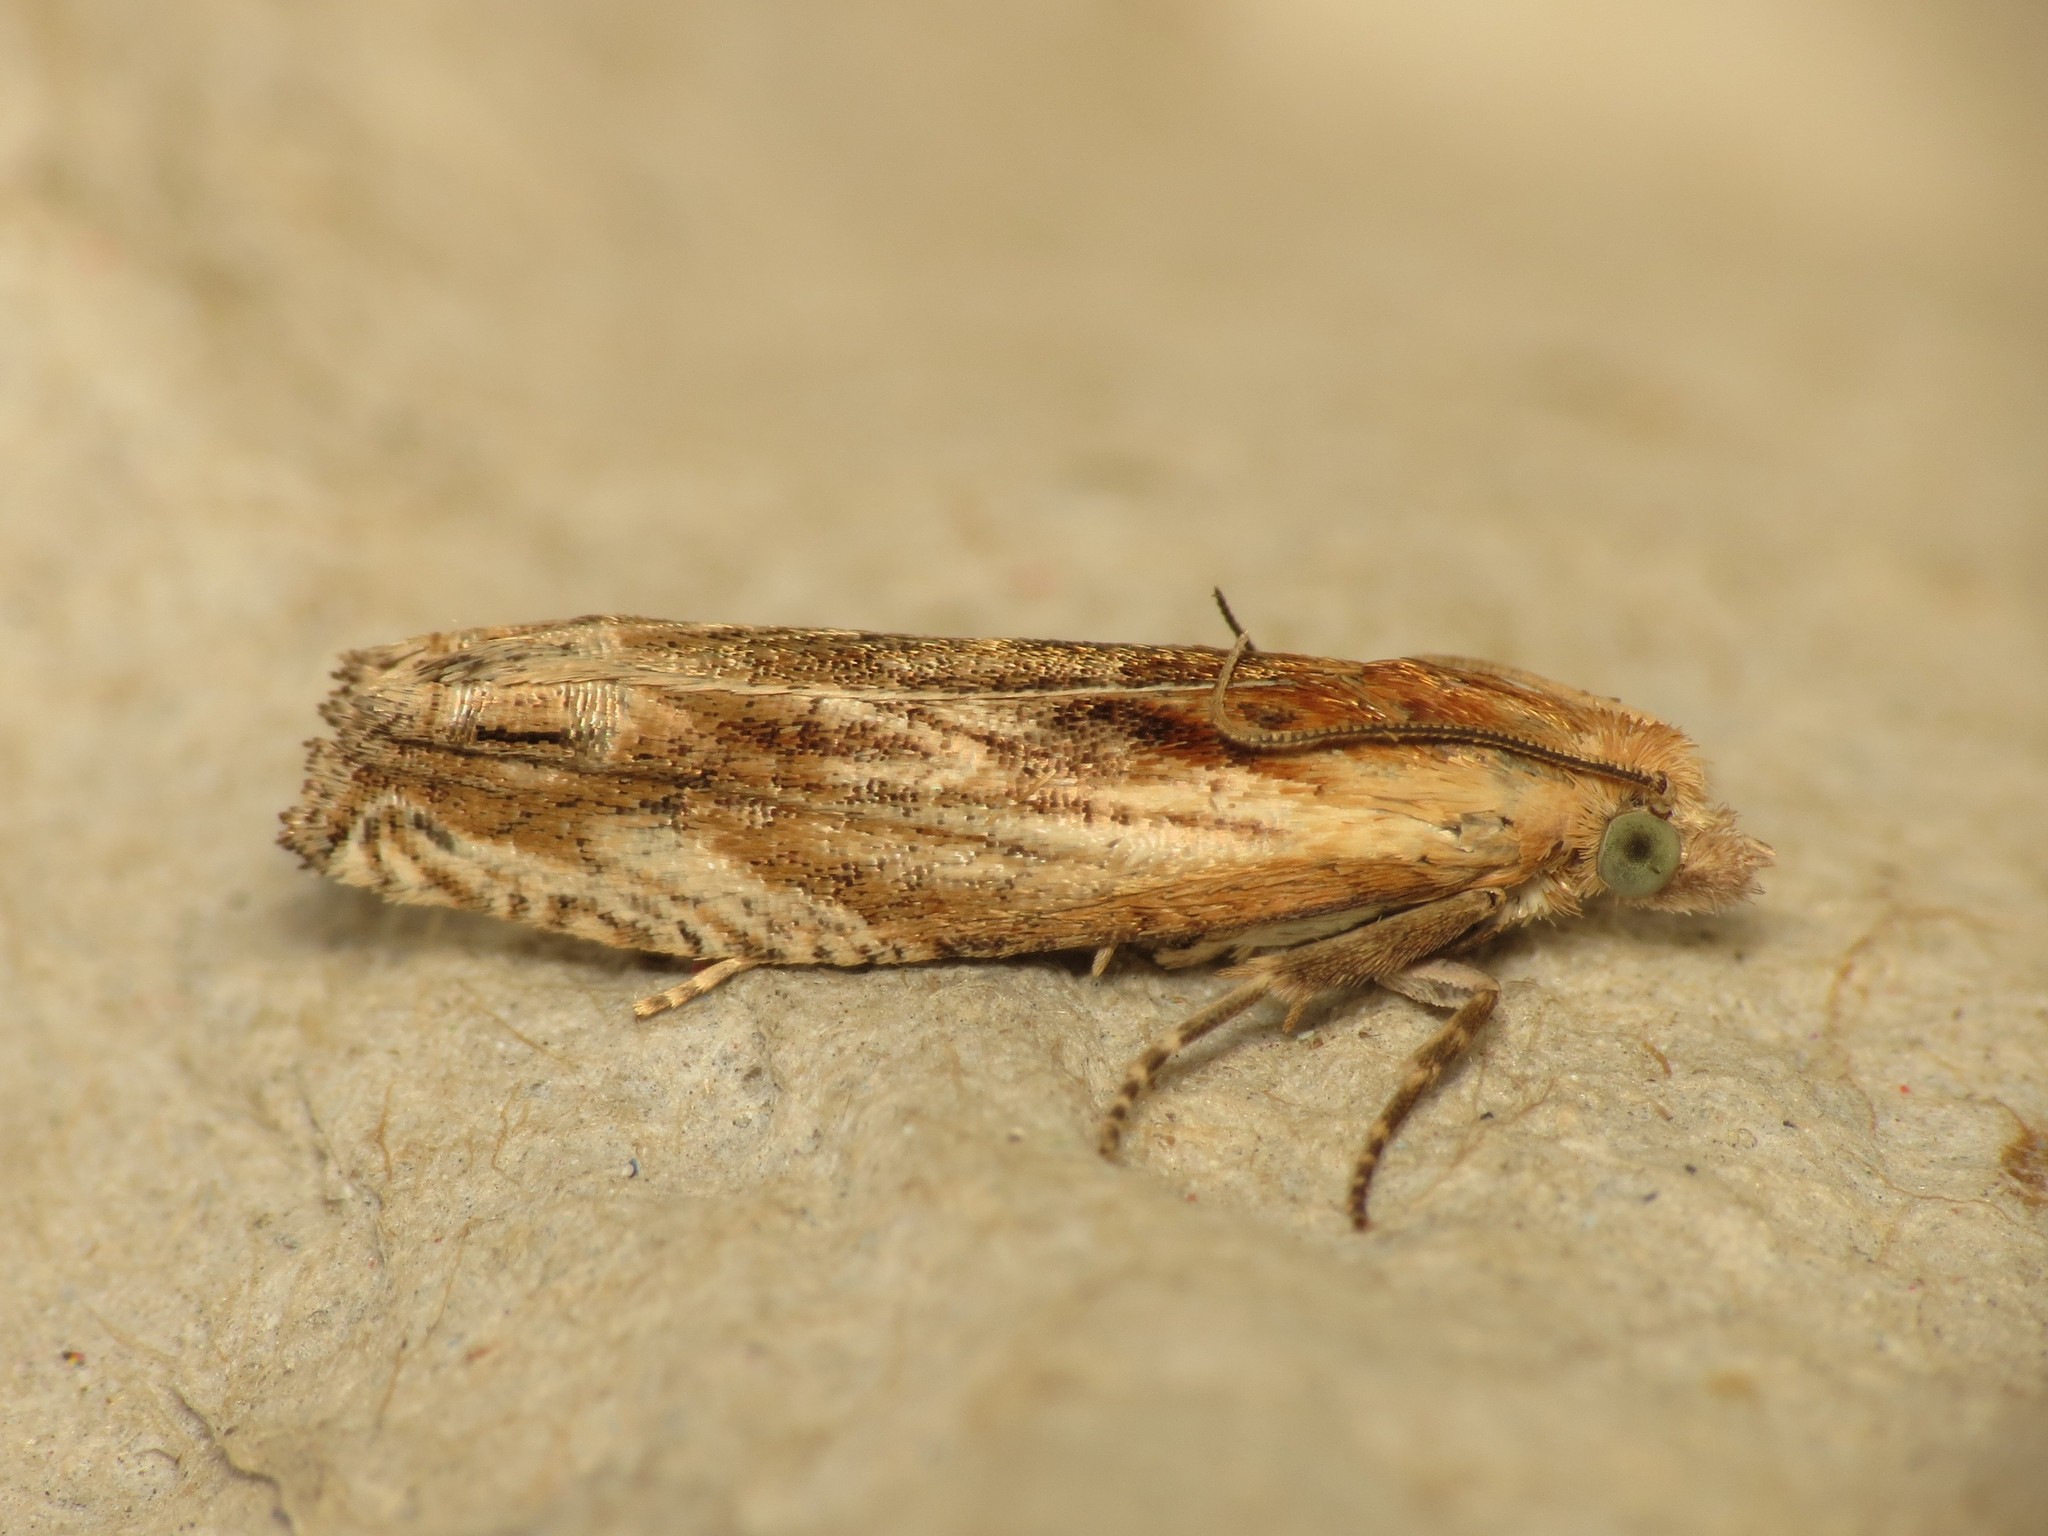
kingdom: Animalia
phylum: Arthropoda
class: Insecta
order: Lepidoptera
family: Tortricidae
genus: Eucosma
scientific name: Eucosma cana
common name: Hoary belle
